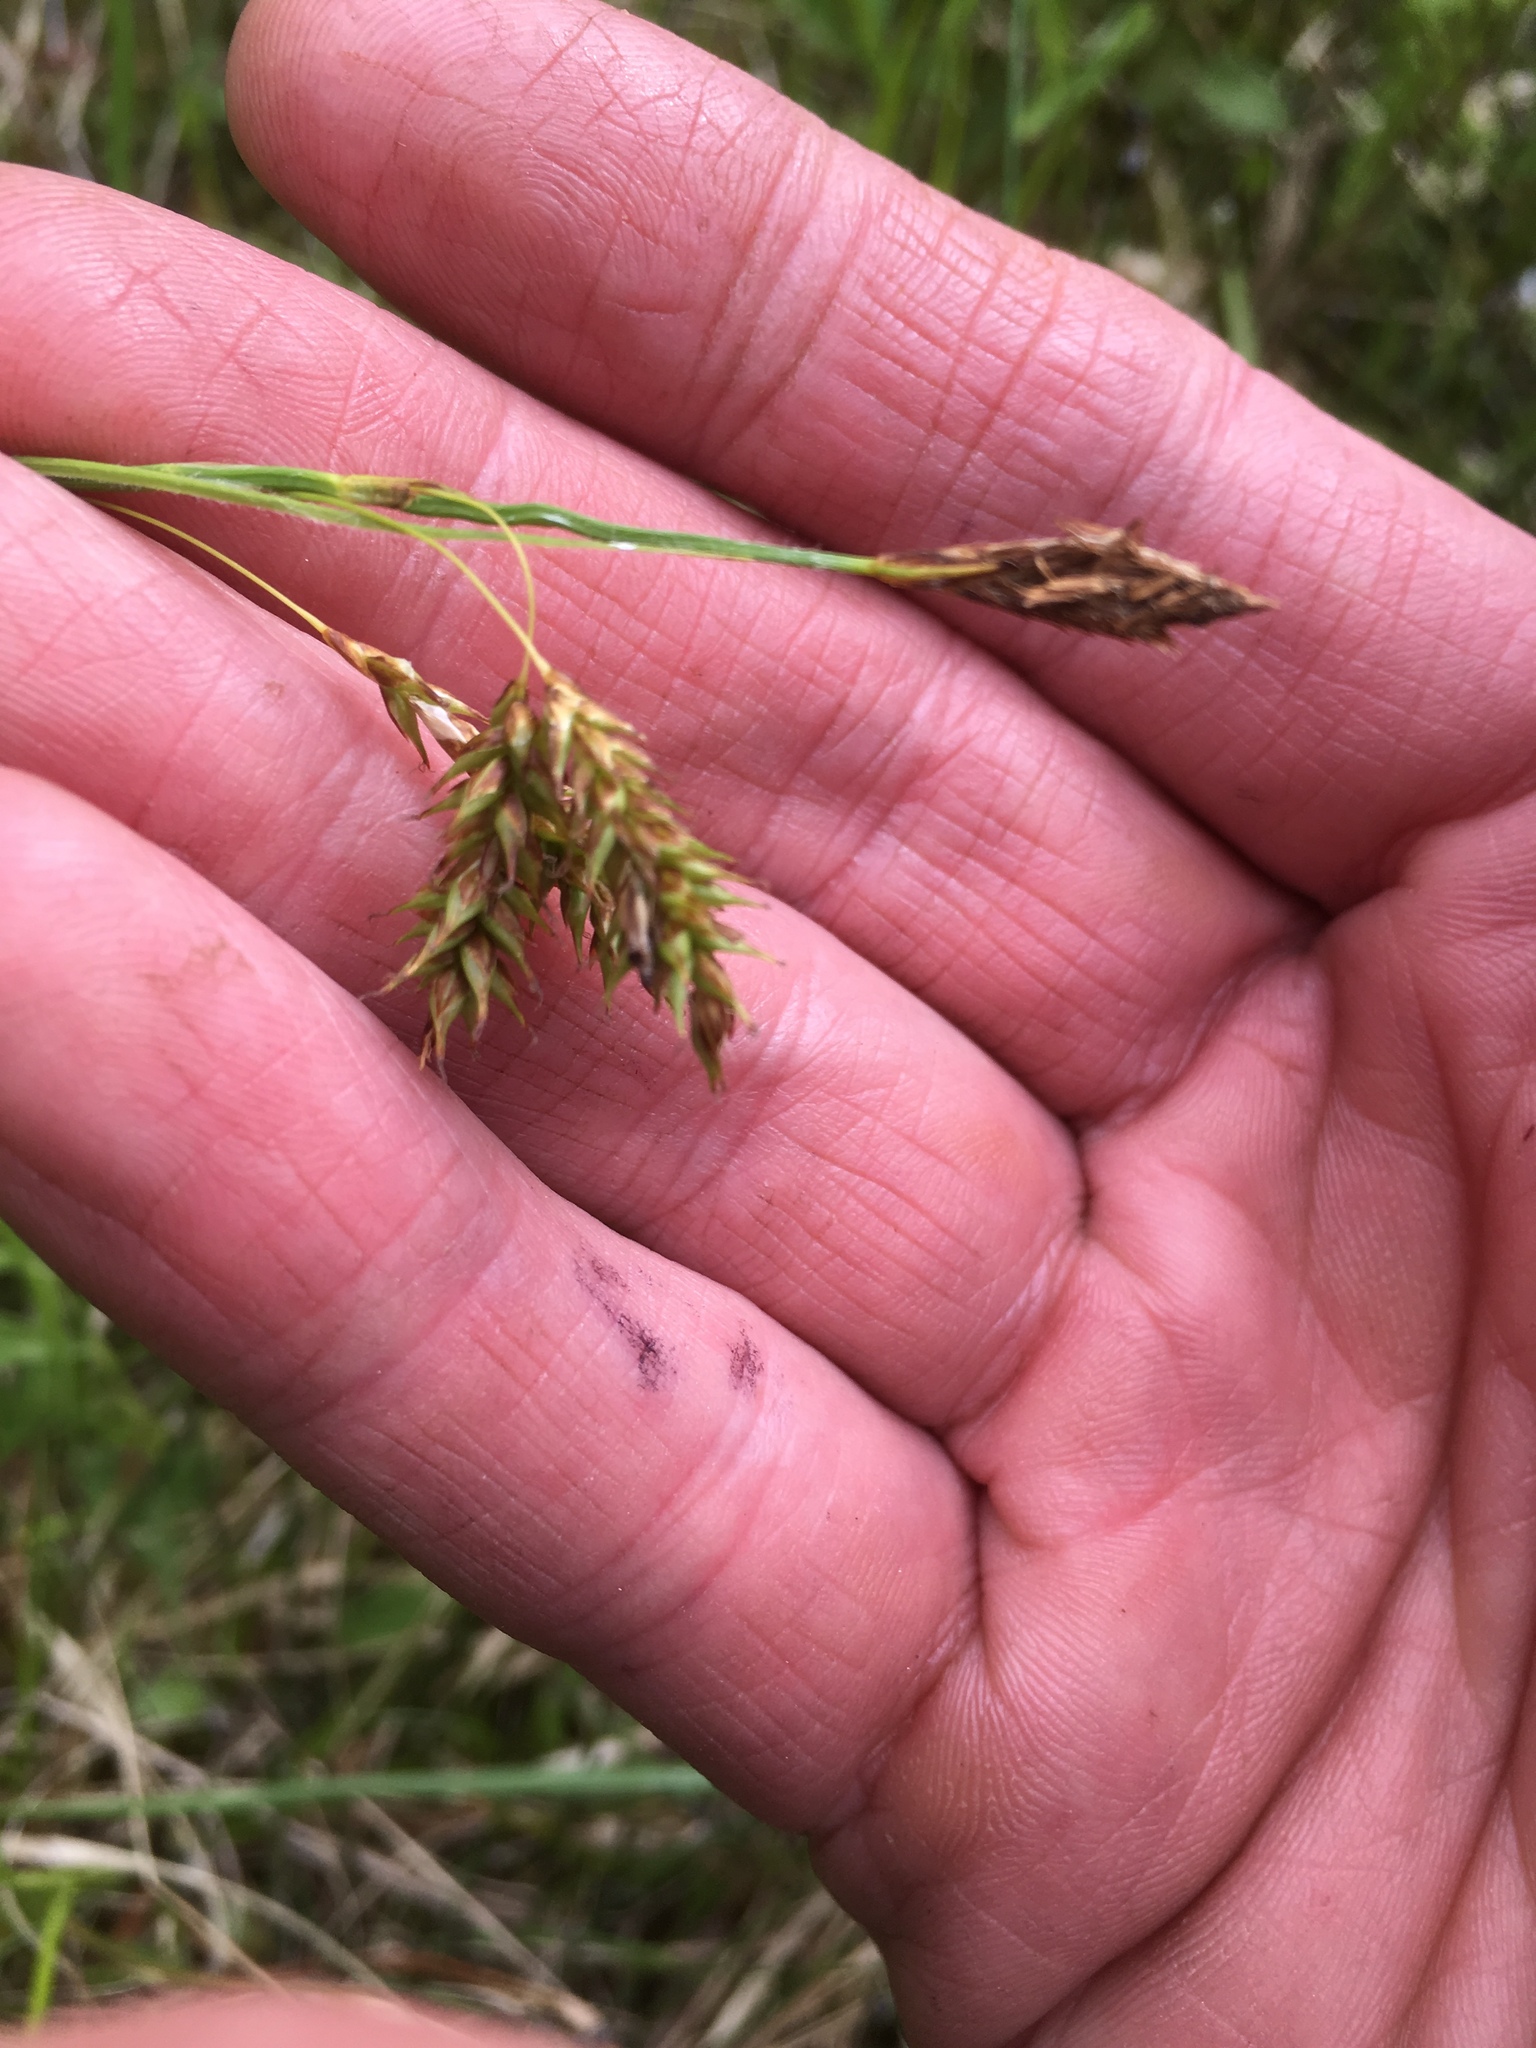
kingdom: Plantae
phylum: Tracheophyta
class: Liliopsida
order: Poales
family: Cyperaceae
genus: Carex
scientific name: Carex castanea
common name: Chestnut sedge
